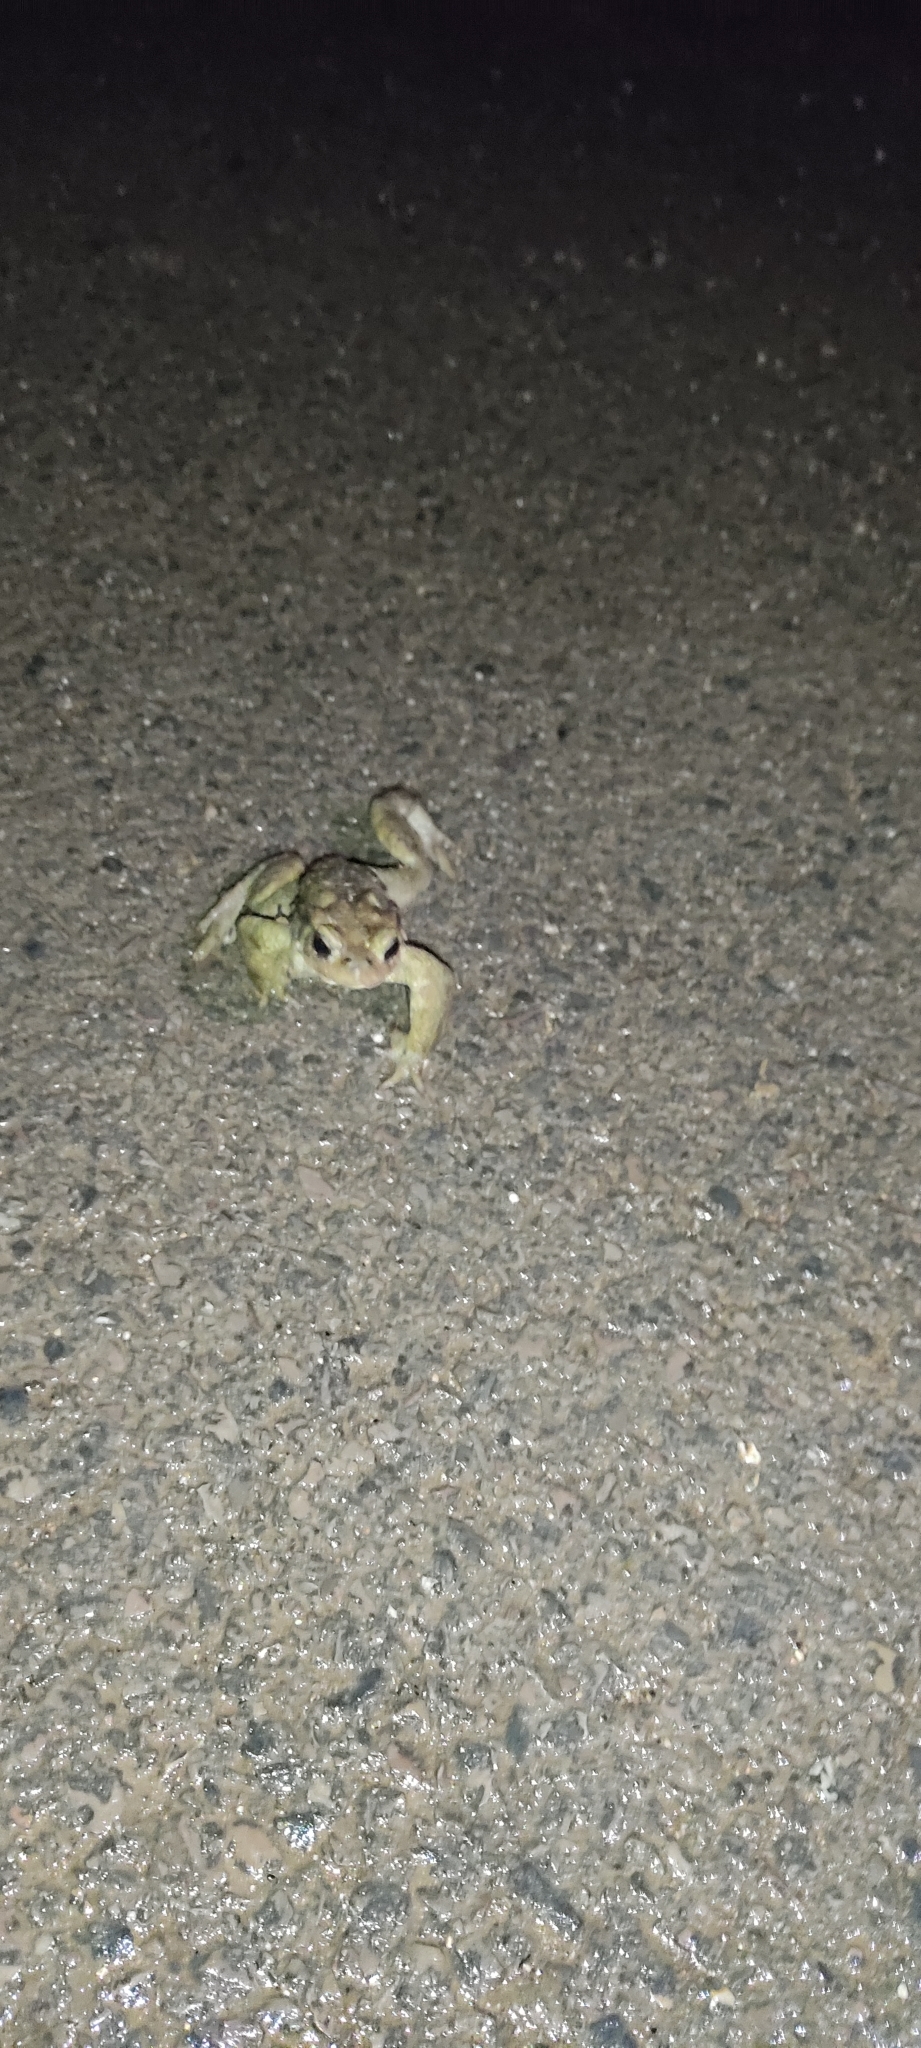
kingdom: Animalia
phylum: Chordata
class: Amphibia
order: Anura
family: Bufonidae
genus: Bufo
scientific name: Bufo spinosus
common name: Western common toad
